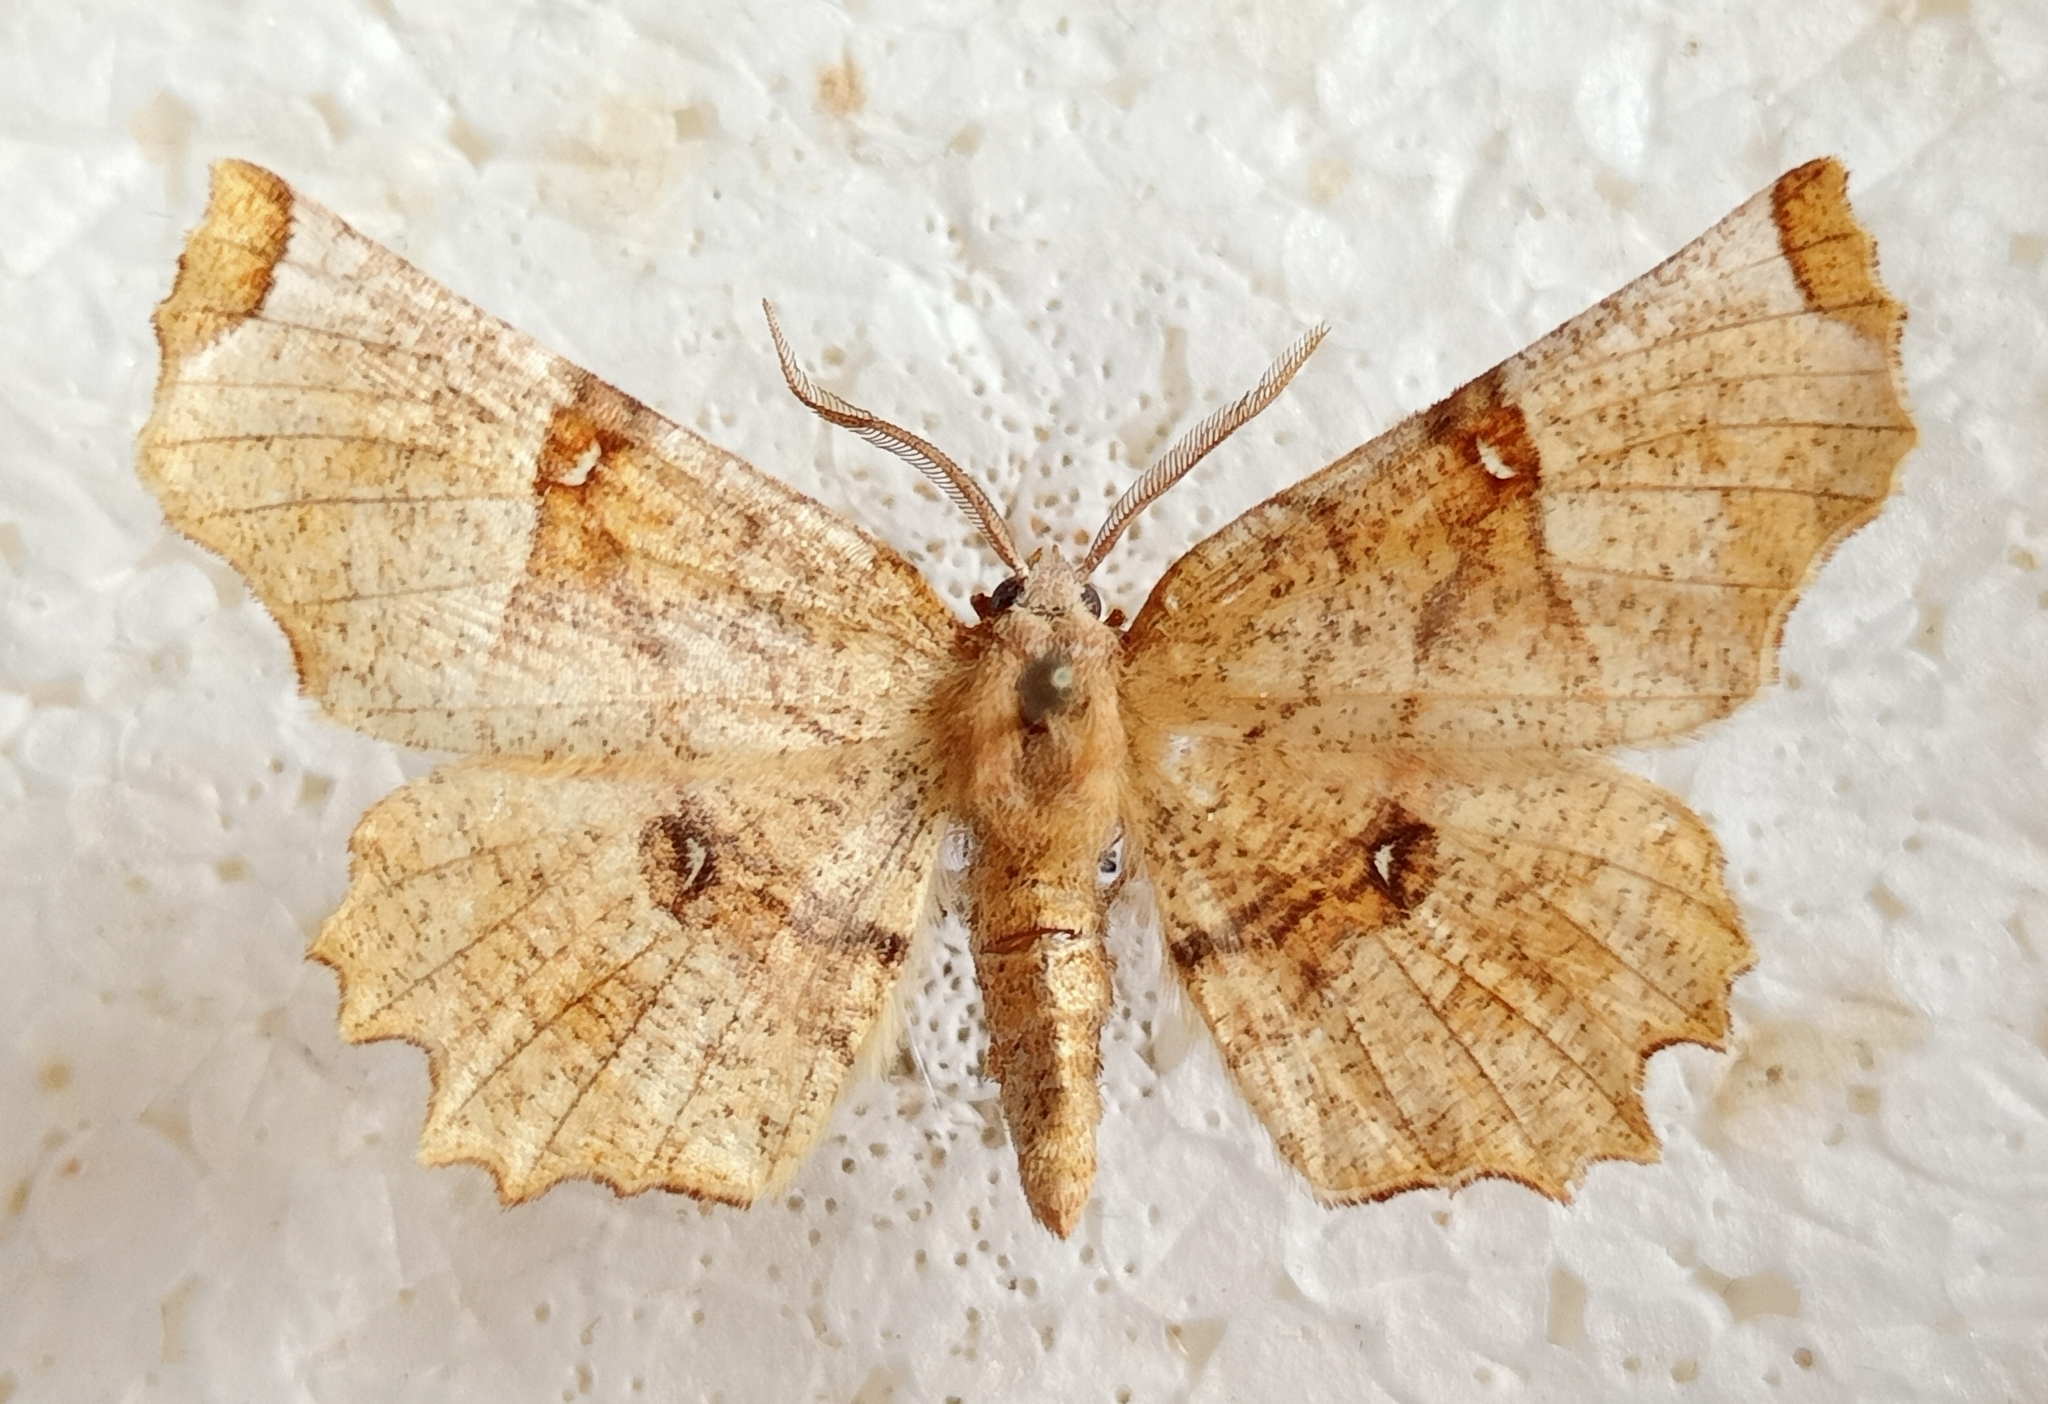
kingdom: Animalia
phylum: Arthropoda
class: Insecta
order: Lepidoptera
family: Geometridae
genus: Selenia
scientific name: Selenia lunularia
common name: Lunar thorn
